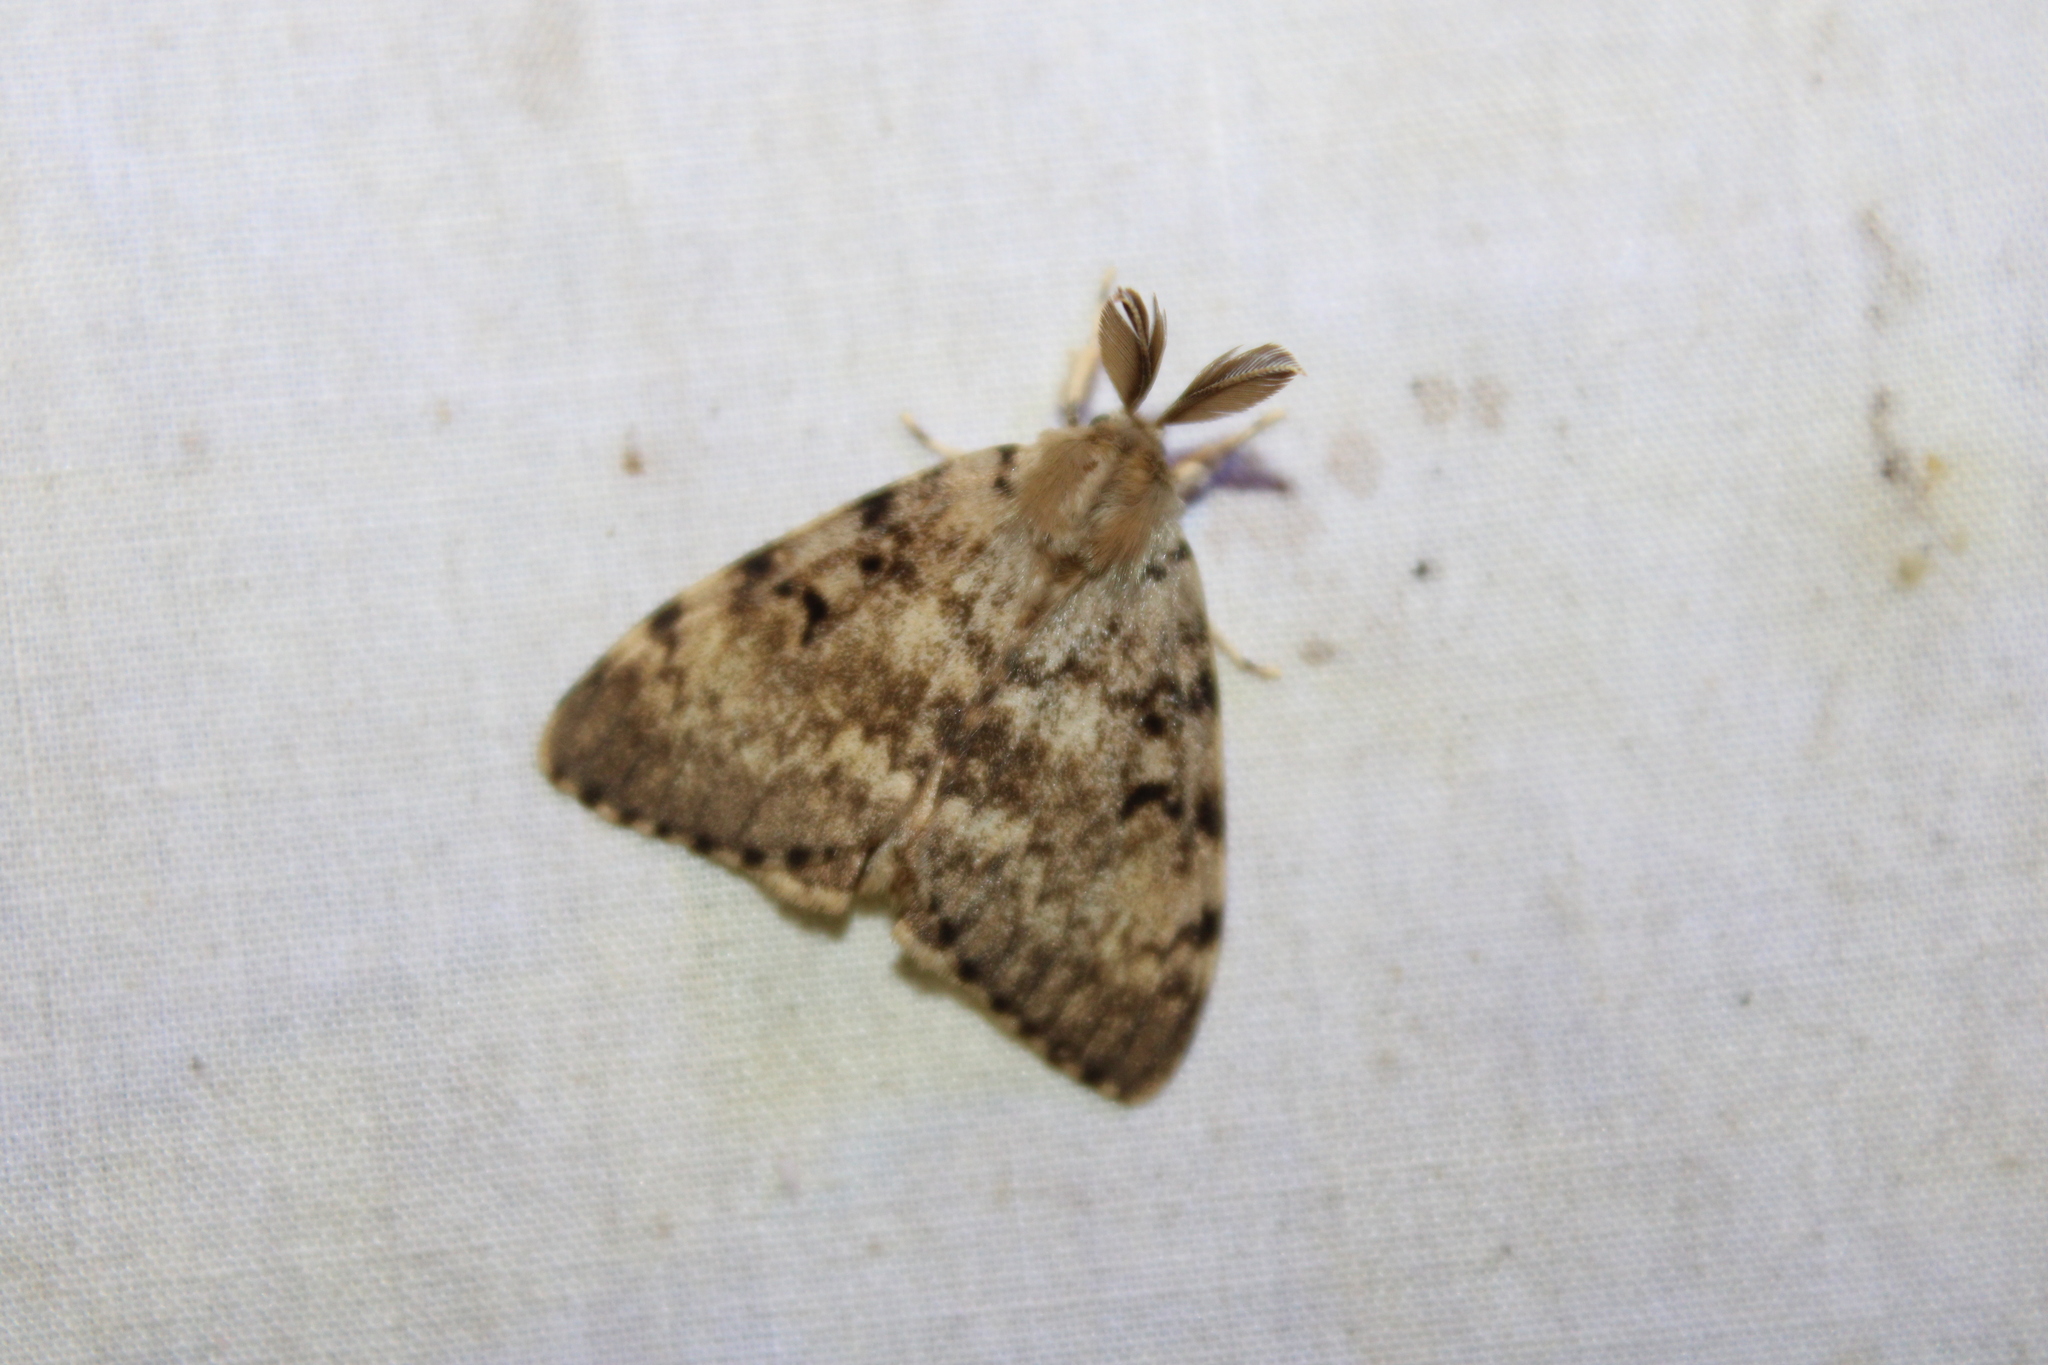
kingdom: Animalia
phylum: Arthropoda
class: Insecta
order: Lepidoptera
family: Erebidae
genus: Lymantria
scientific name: Lymantria dispar
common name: Gypsy moth
